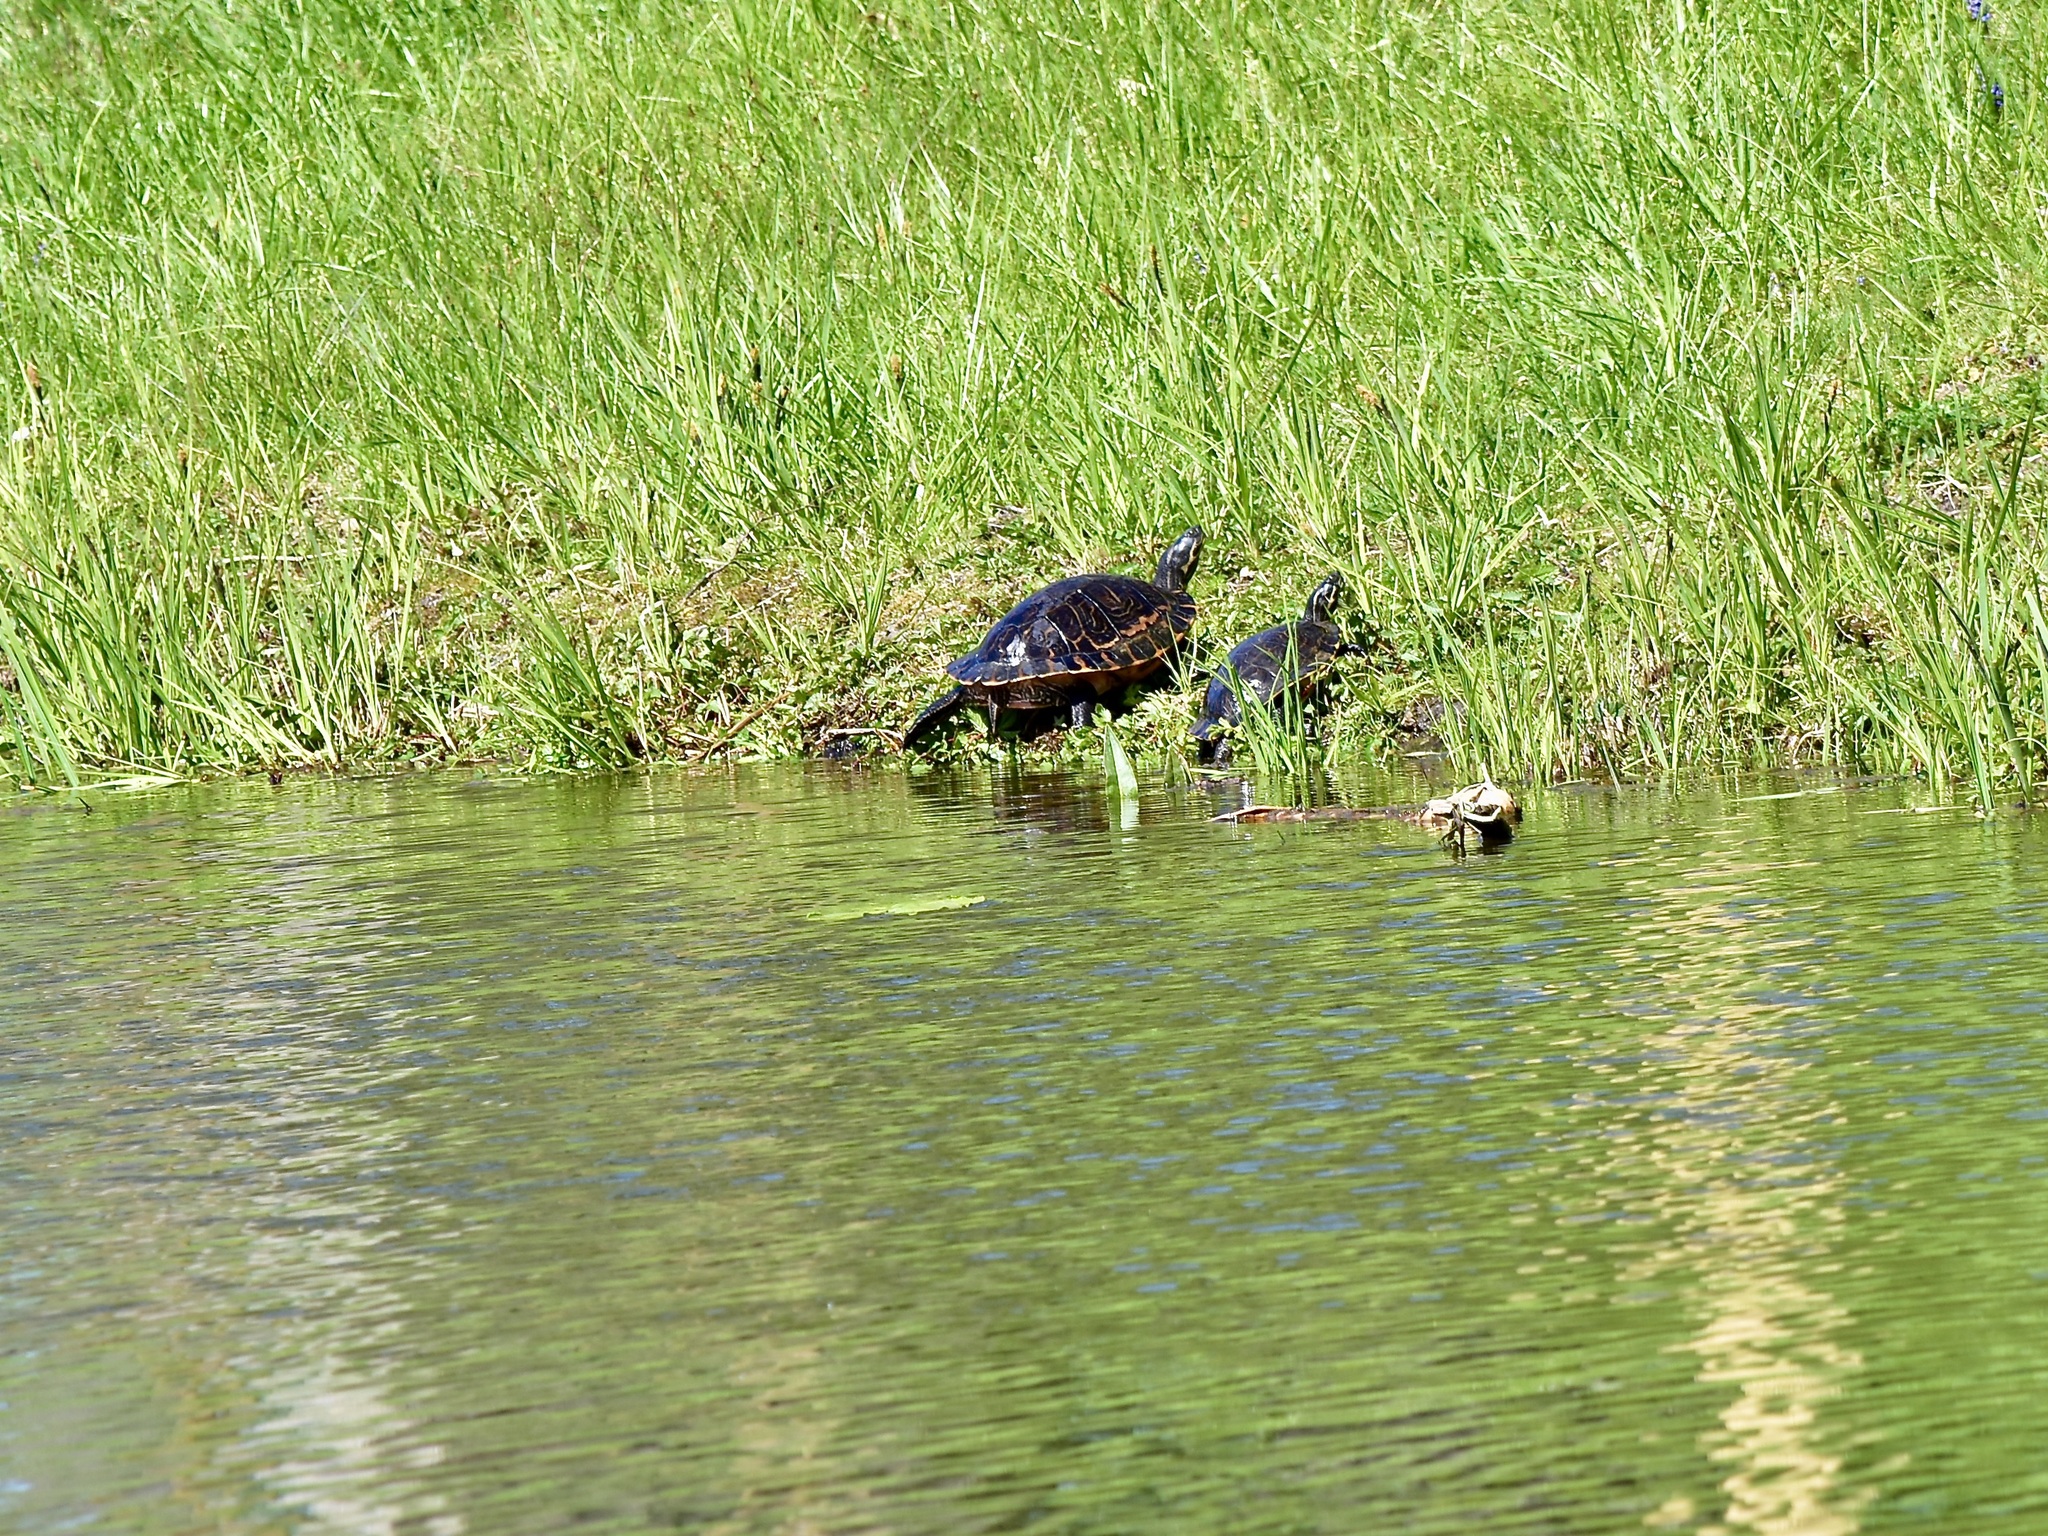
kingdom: Animalia
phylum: Chordata
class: Testudines
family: Emydidae
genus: Pseudemys
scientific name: Pseudemys concinna
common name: Eastern river cooter
